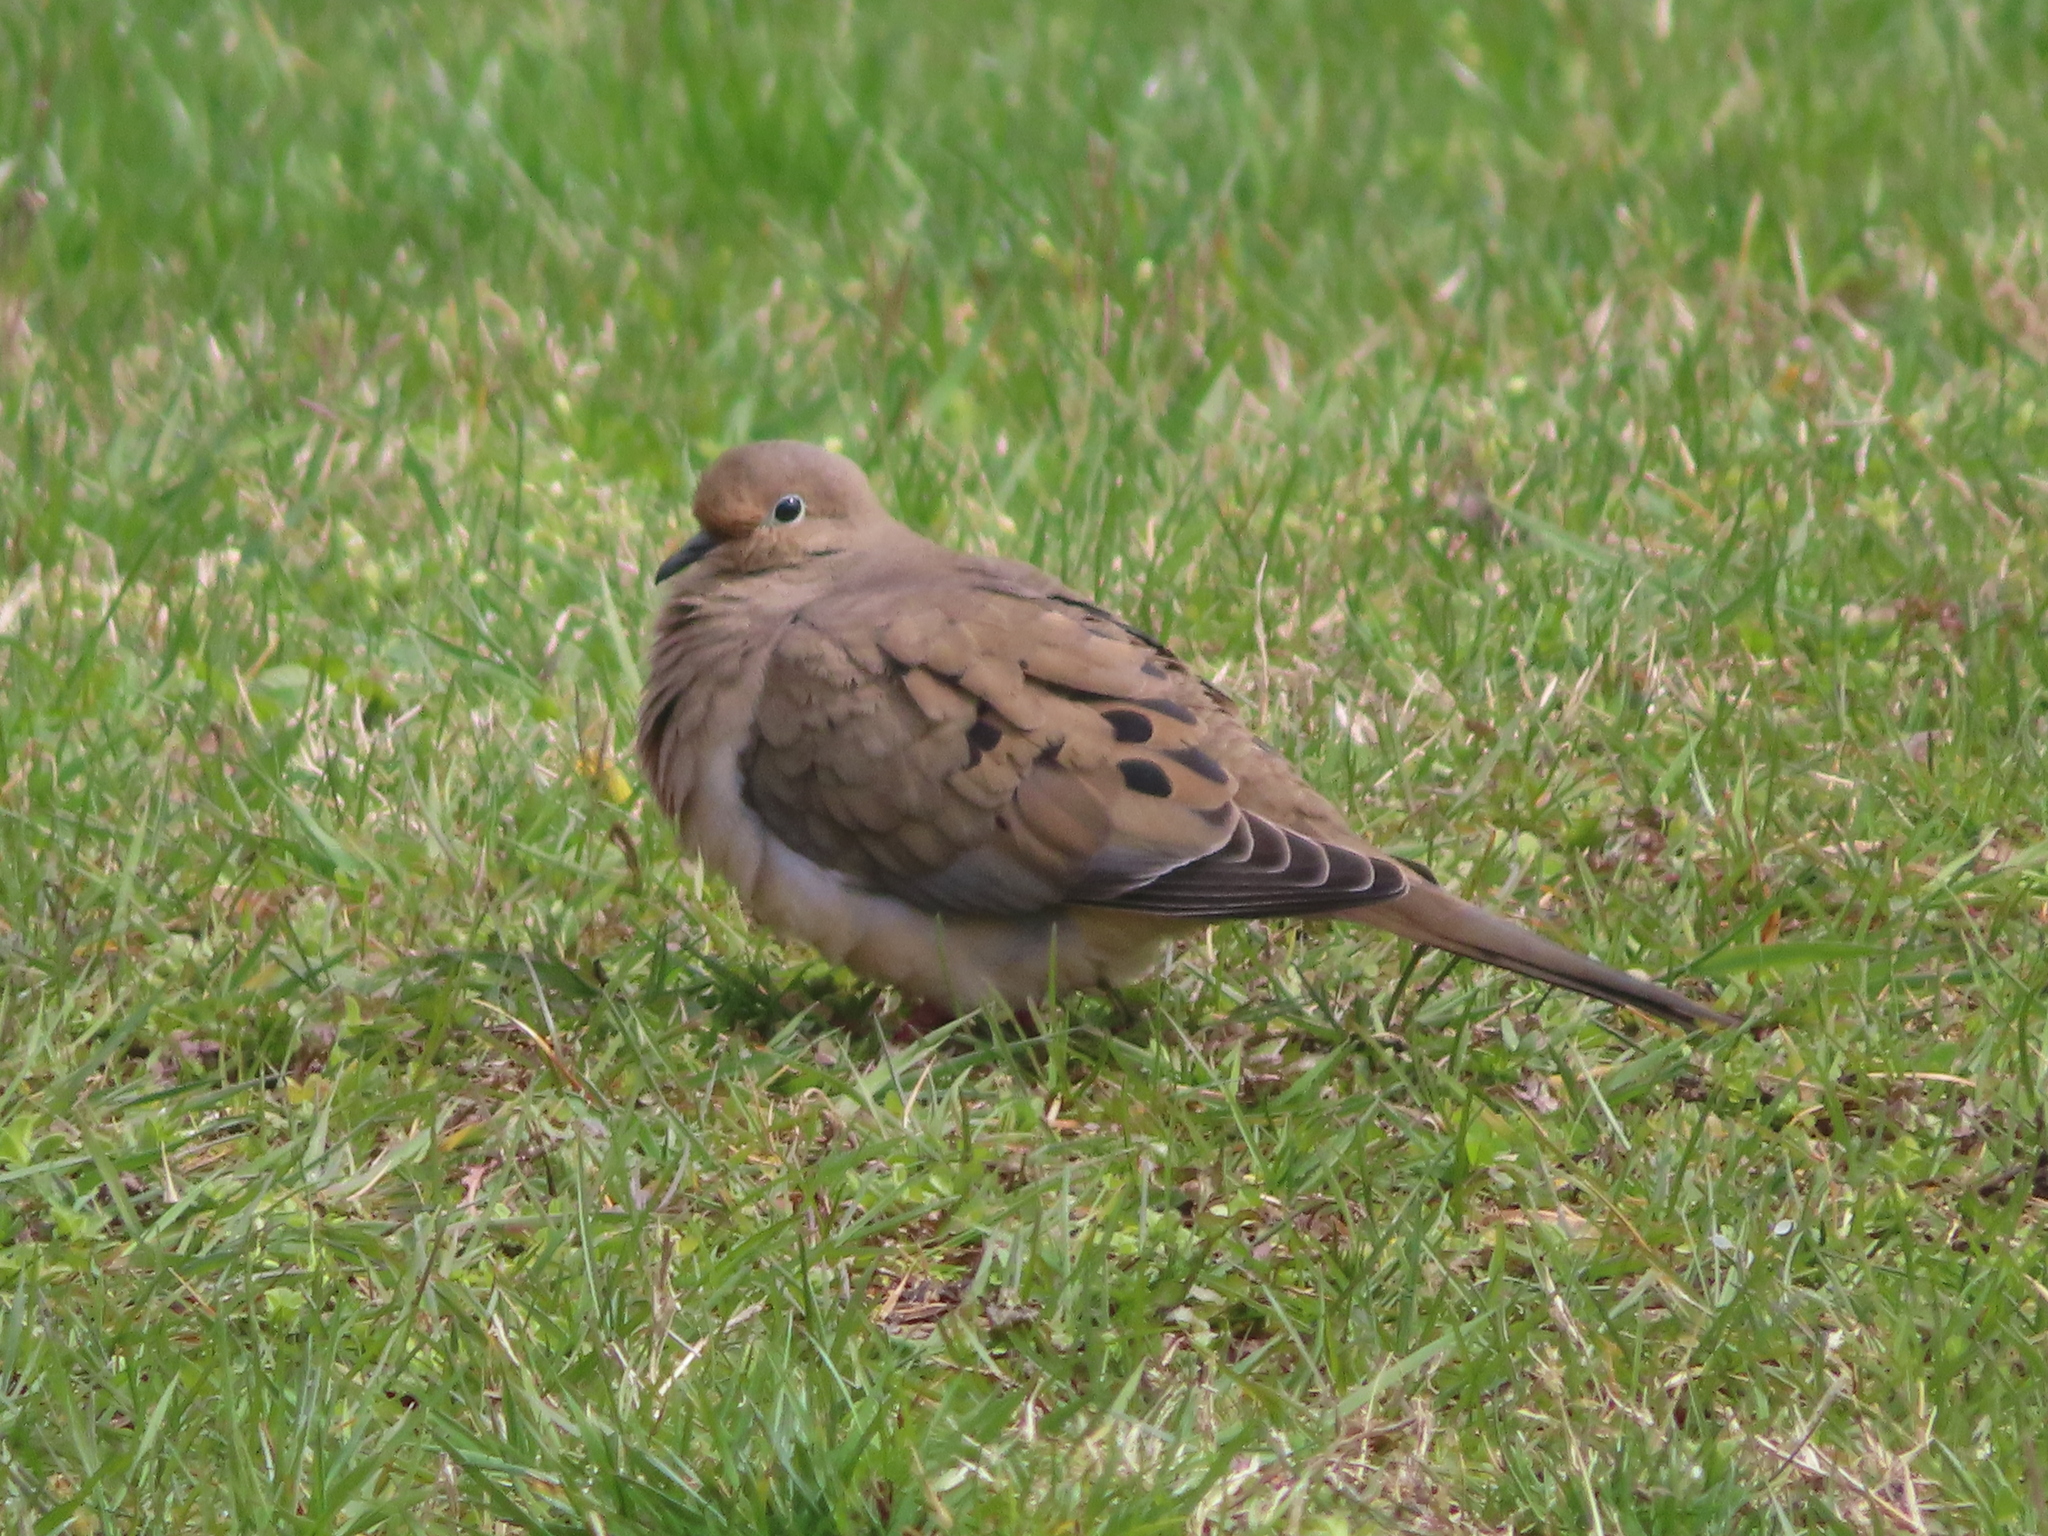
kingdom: Animalia
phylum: Chordata
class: Aves
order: Columbiformes
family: Columbidae
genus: Zenaida
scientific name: Zenaida macroura
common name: Mourning dove
